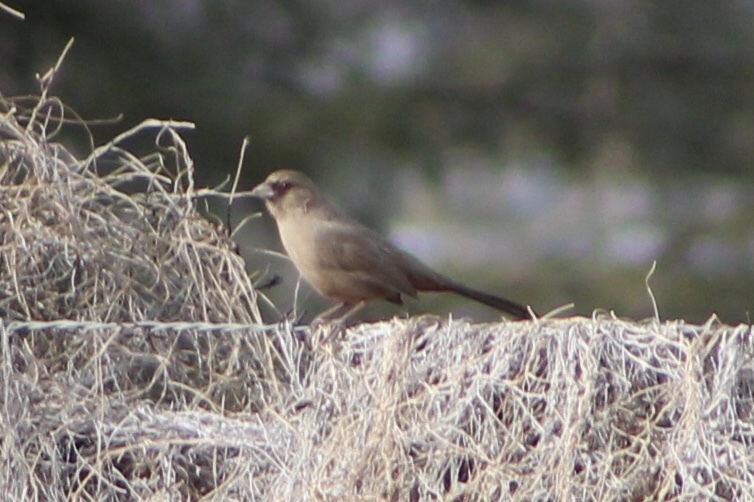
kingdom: Animalia
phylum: Chordata
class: Aves
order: Passeriformes
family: Passerellidae
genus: Melozone
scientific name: Melozone aberti
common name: Abert's towhee
